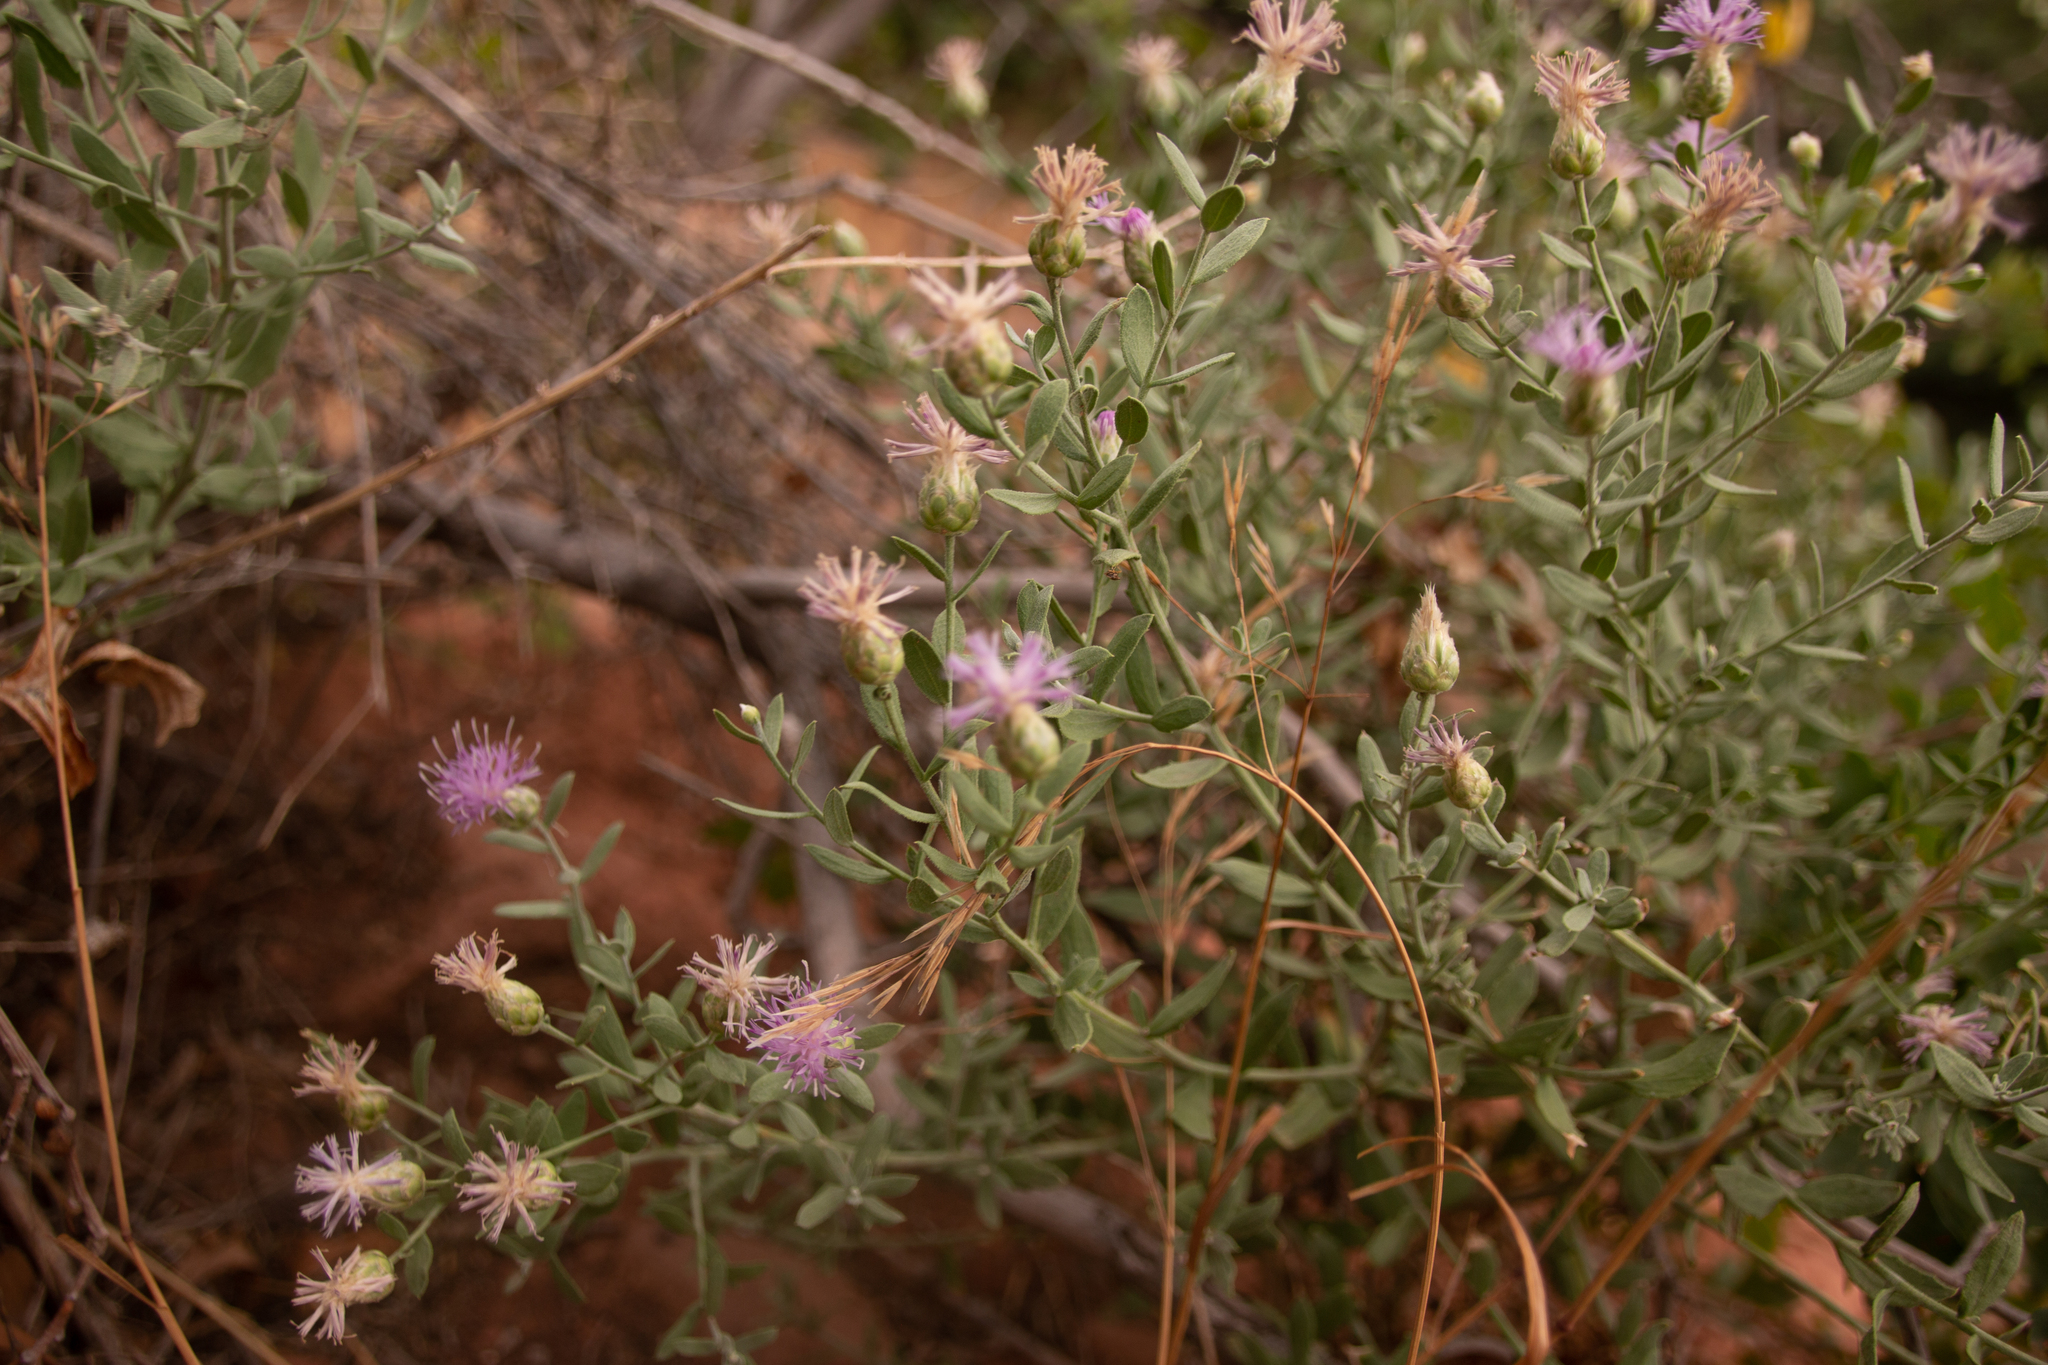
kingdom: Plantae
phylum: Tracheophyta
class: Magnoliopsida
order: Asterales
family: Asteraceae
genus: Leuzea
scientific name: Leuzea repens
